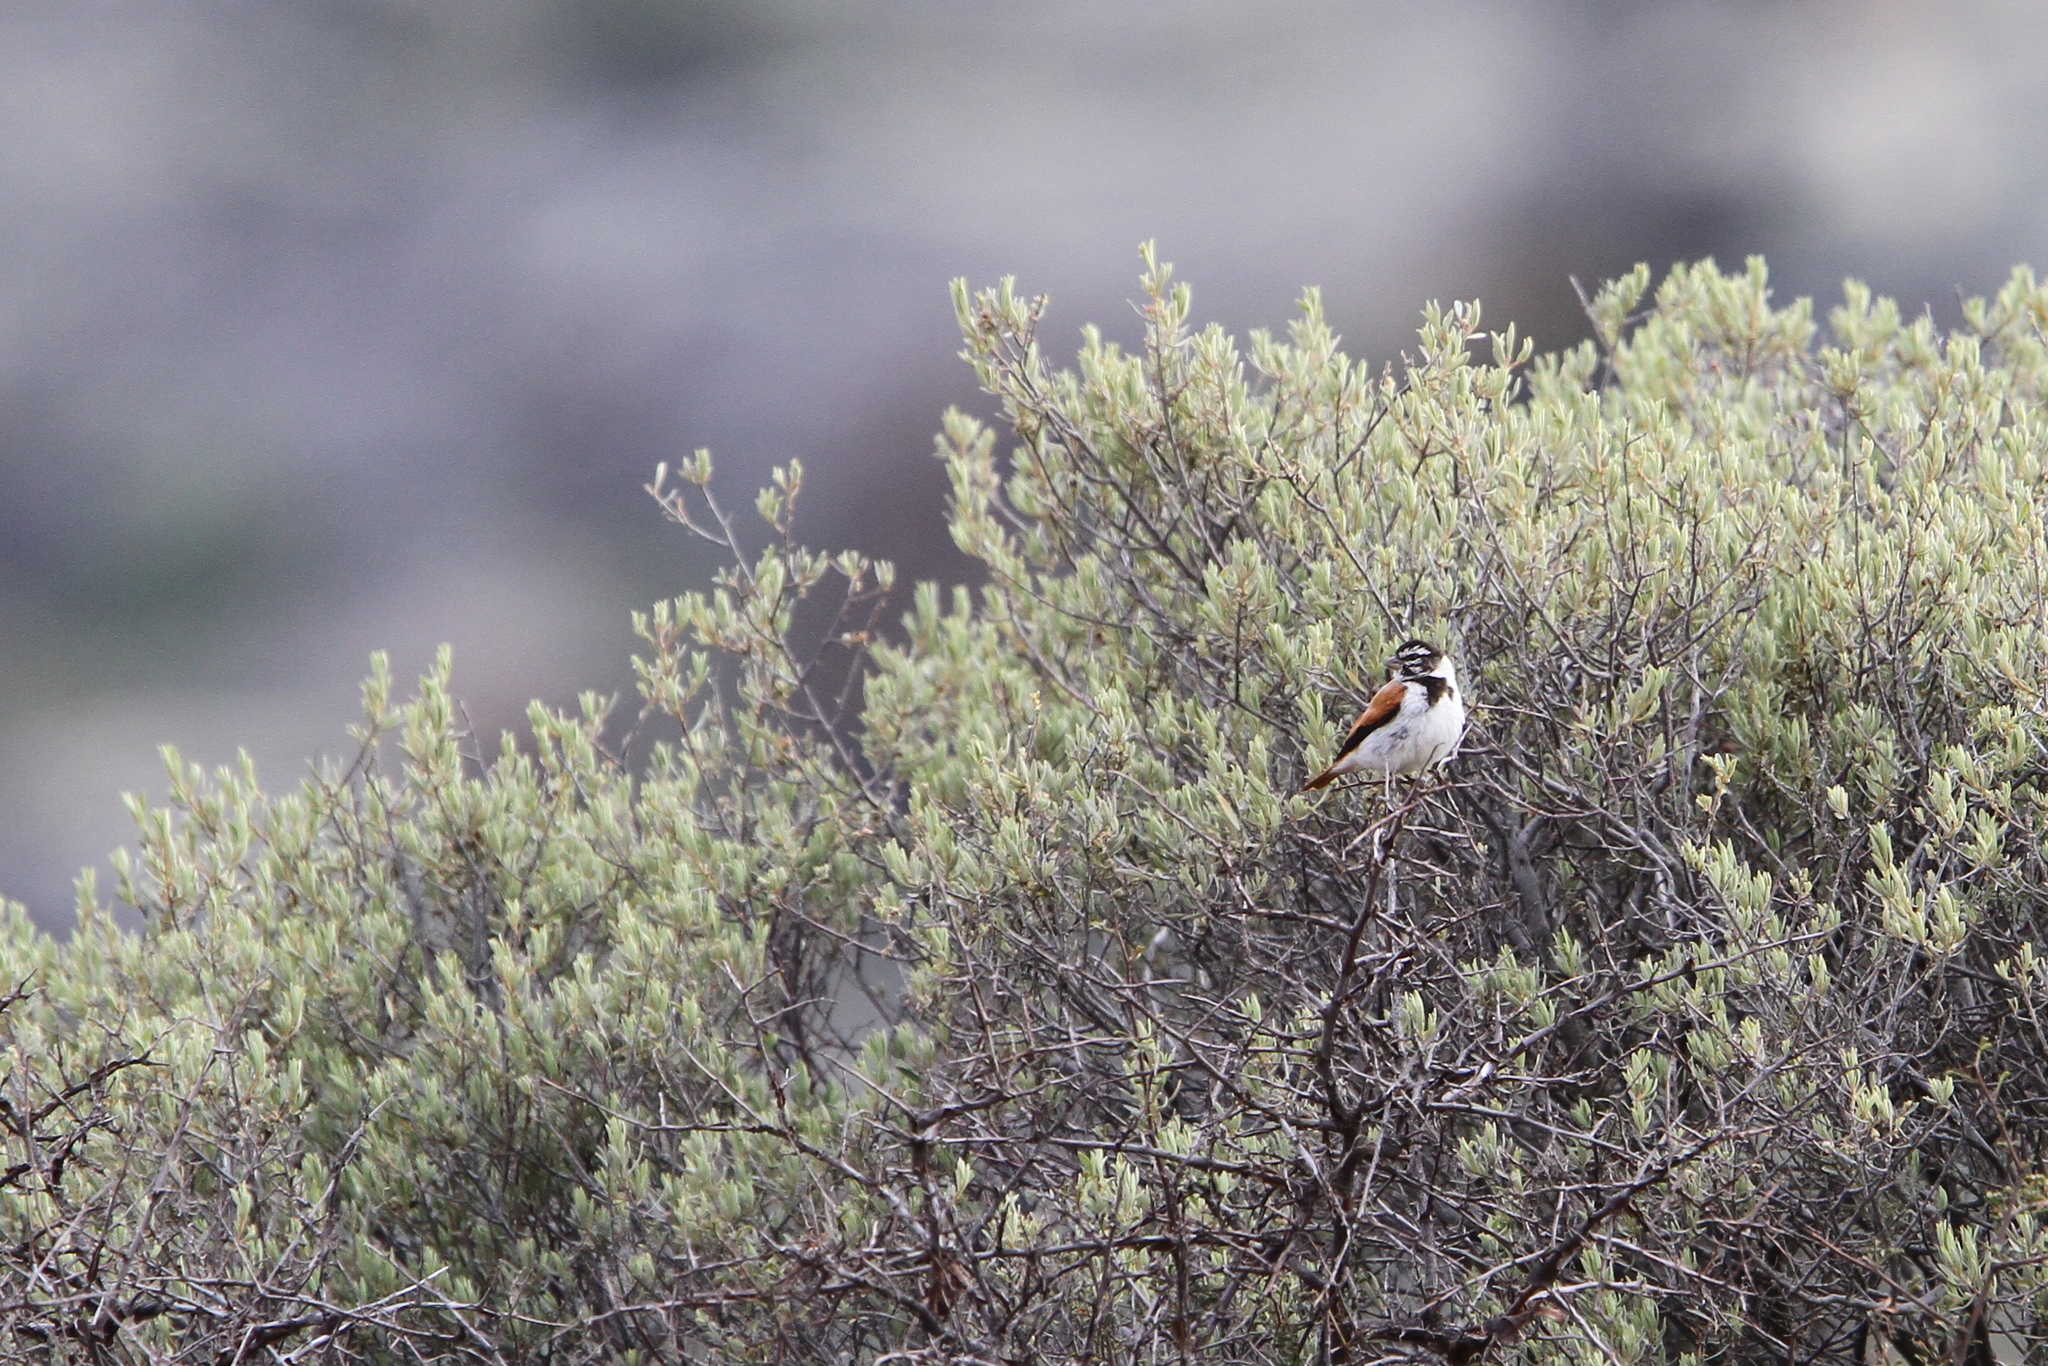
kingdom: Animalia
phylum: Chordata
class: Aves
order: Passeriformes
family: Fringillidae
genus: Serinus
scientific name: Serinus alario
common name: Black-headed canary
